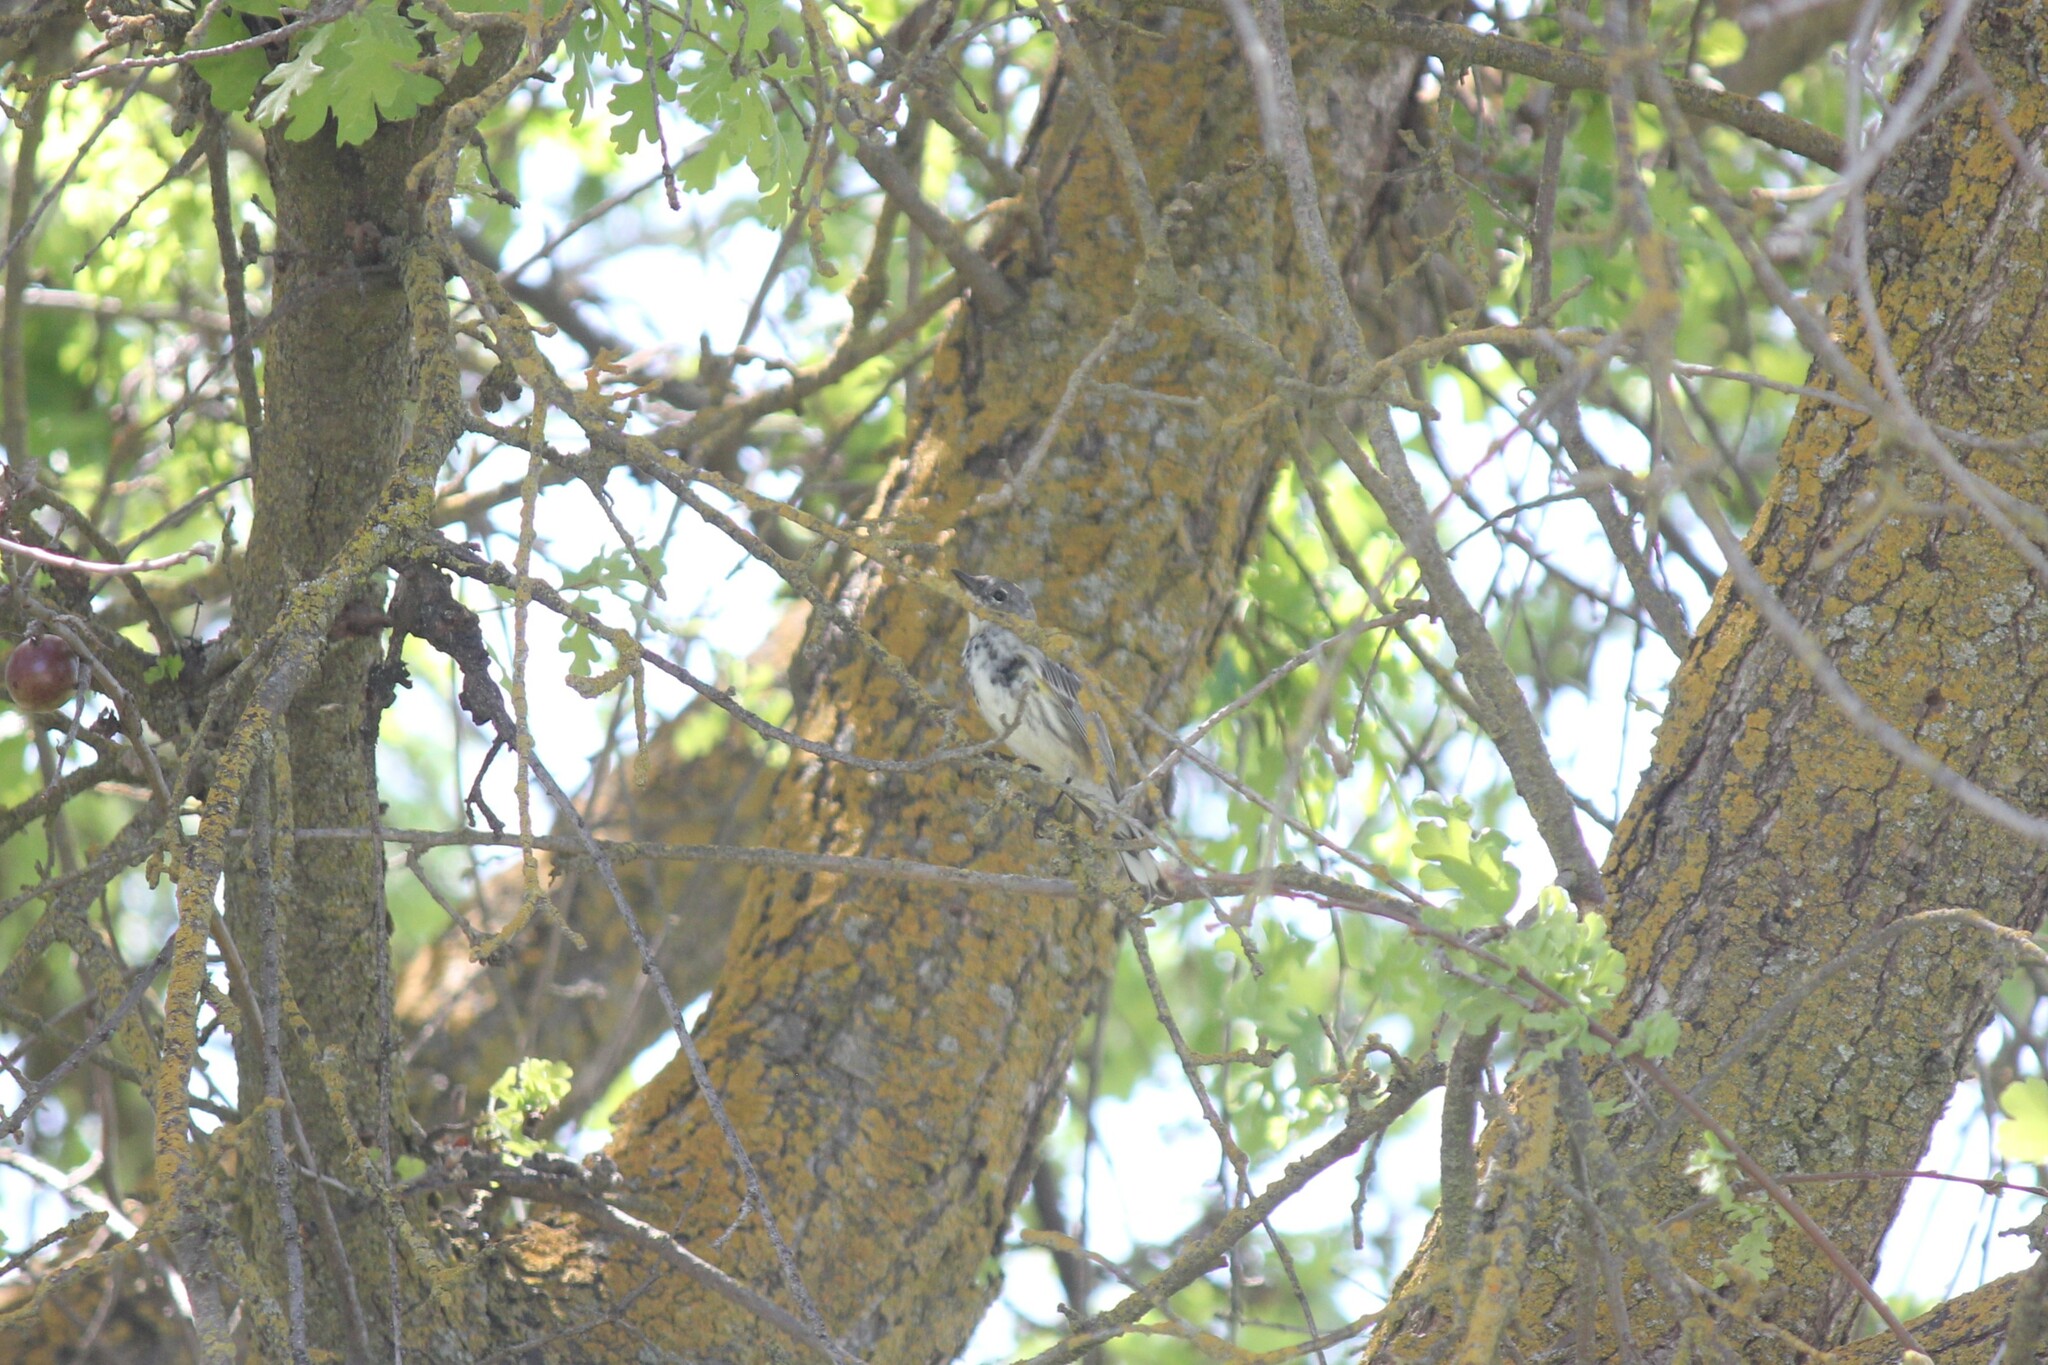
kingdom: Animalia
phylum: Chordata
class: Aves
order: Passeriformes
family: Parulidae
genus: Setophaga
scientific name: Setophaga coronata
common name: Myrtle warbler
